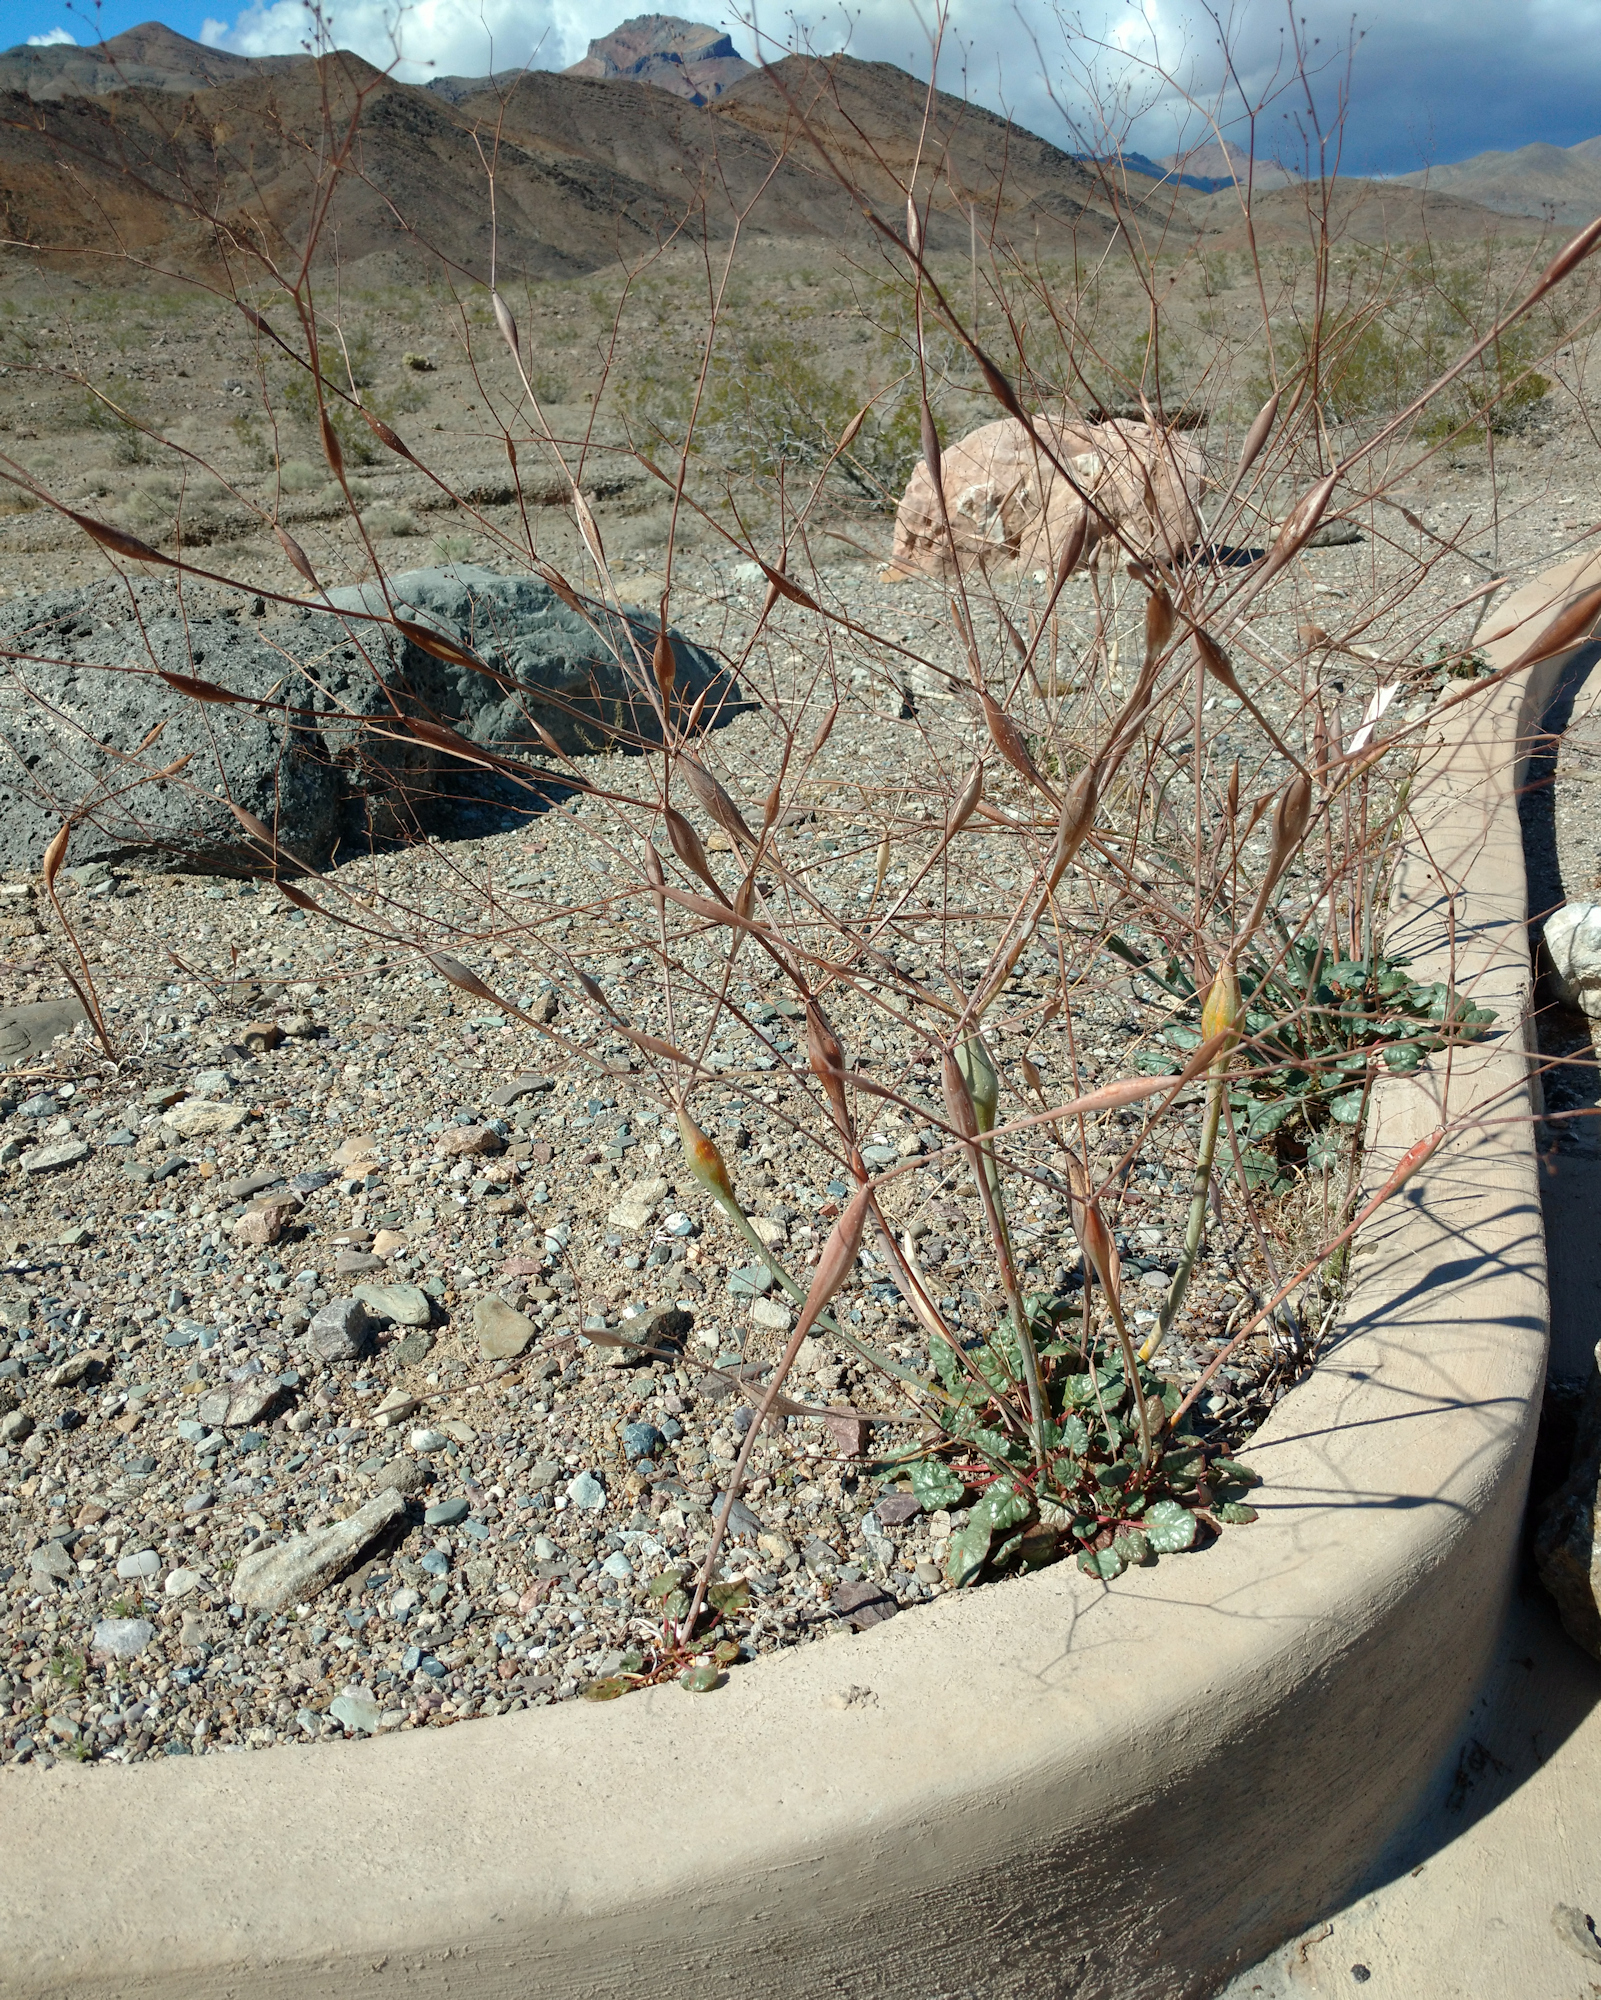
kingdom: Plantae
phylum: Tracheophyta
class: Magnoliopsida
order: Caryophyllales
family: Polygonaceae
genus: Eriogonum
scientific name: Eriogonum inflatum
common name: Desert trumpet
